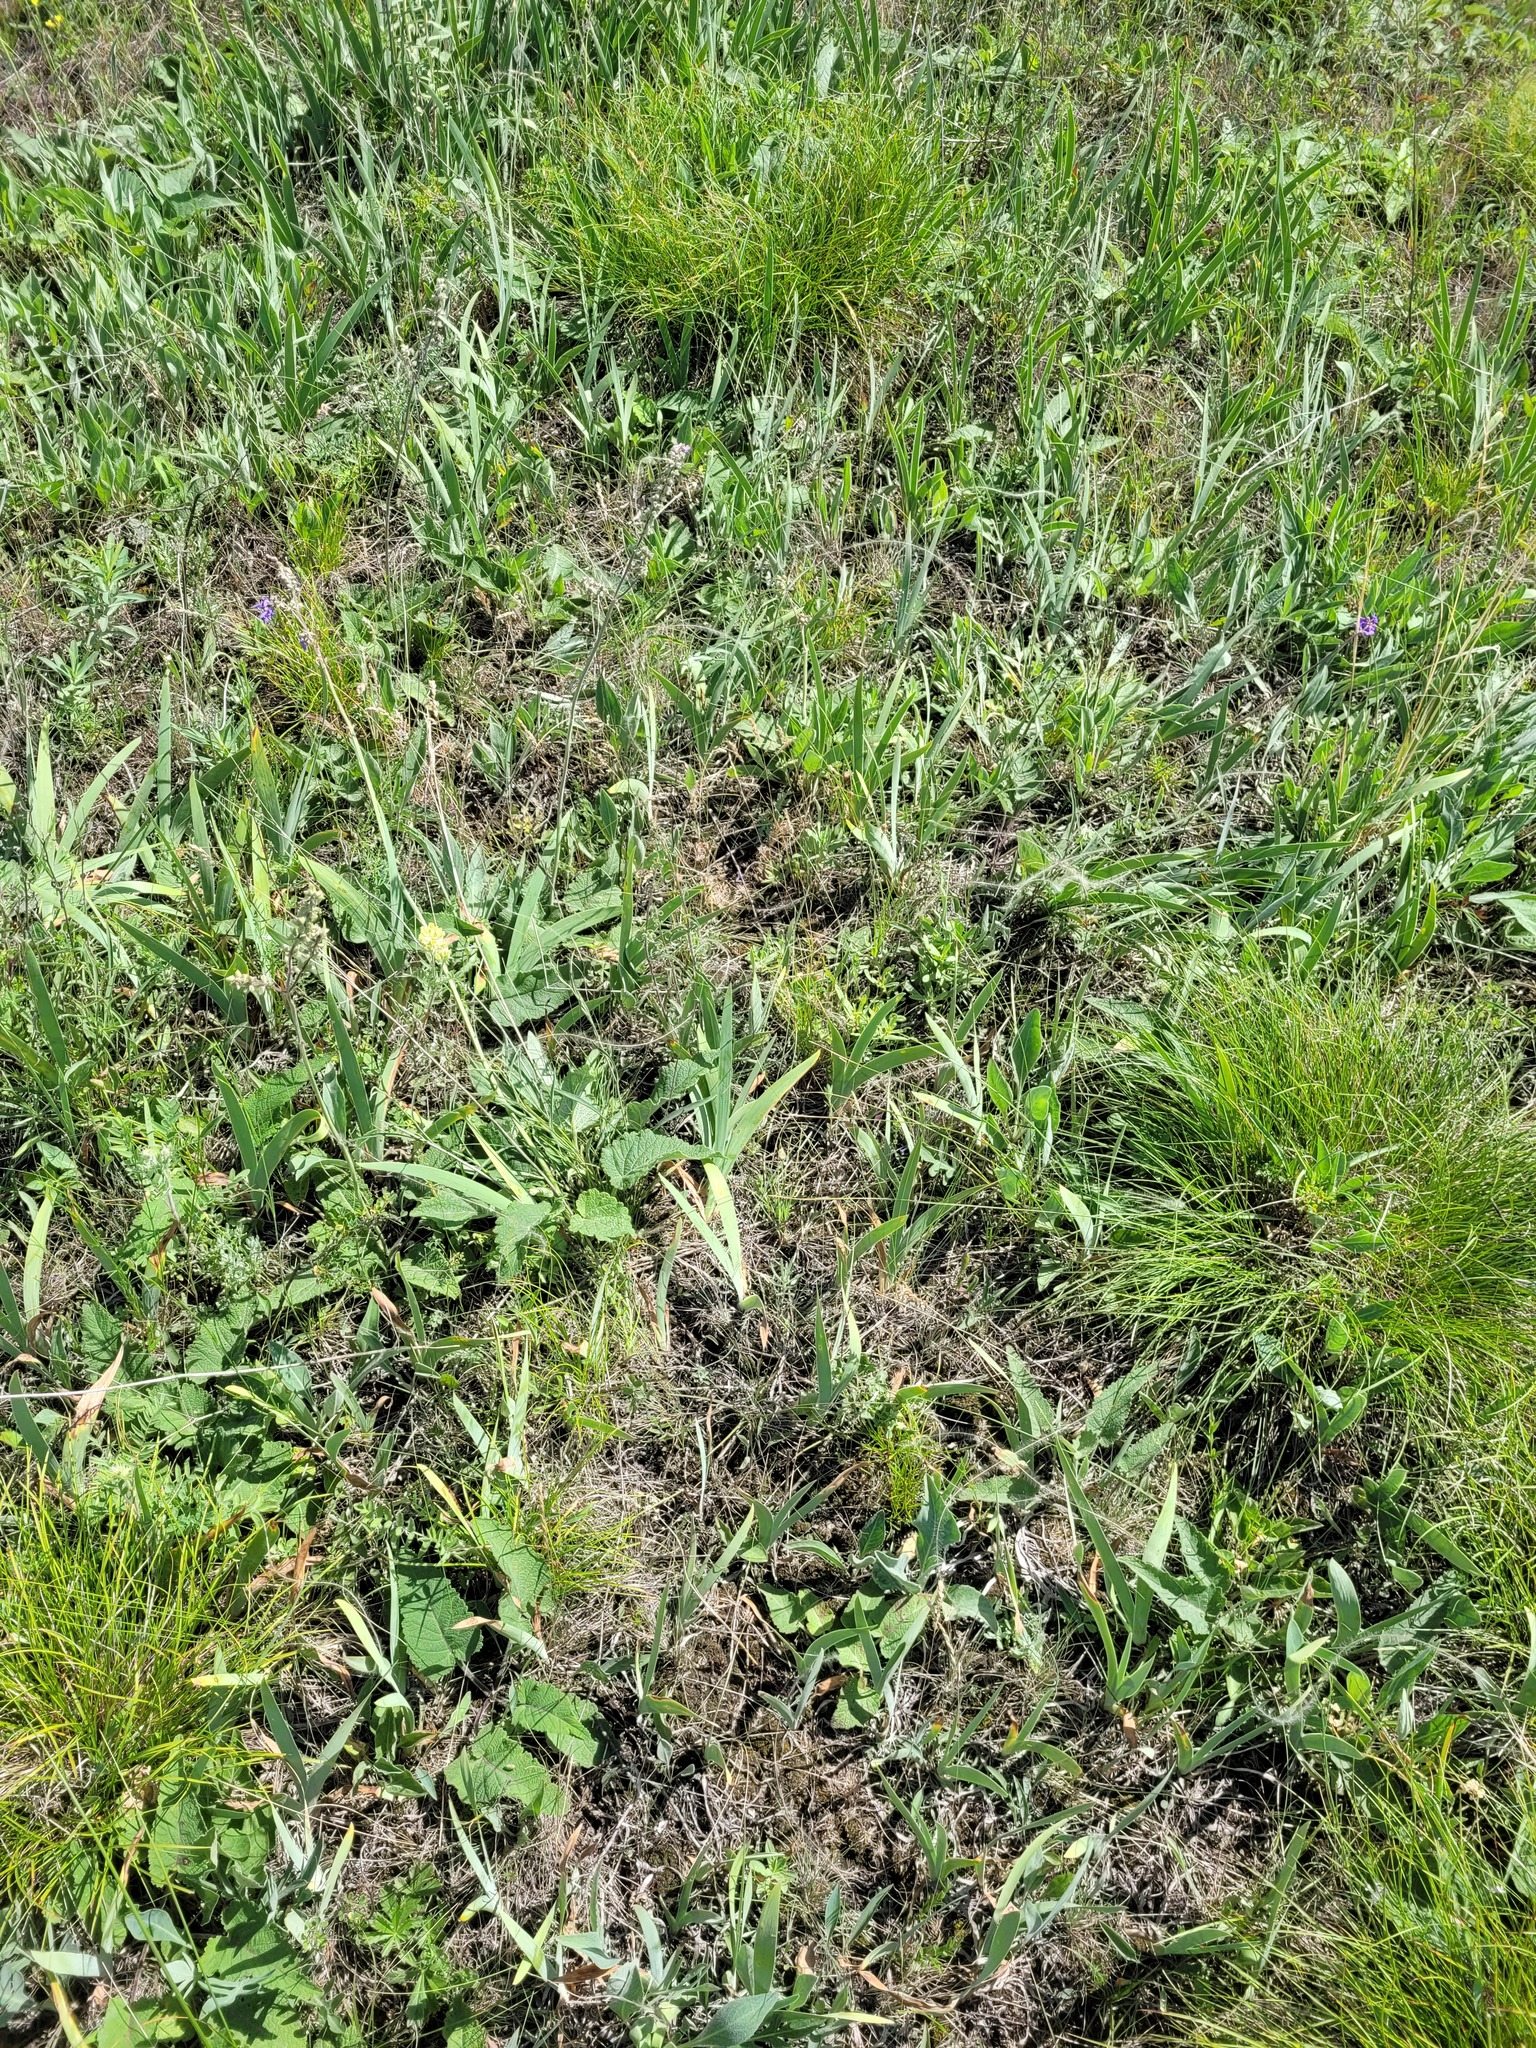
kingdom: Plantae
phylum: Tracheophyta
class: Liliopsida
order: Asparagales
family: Iridaceae
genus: Iris
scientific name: Iris pumila
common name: Dwarf iris
